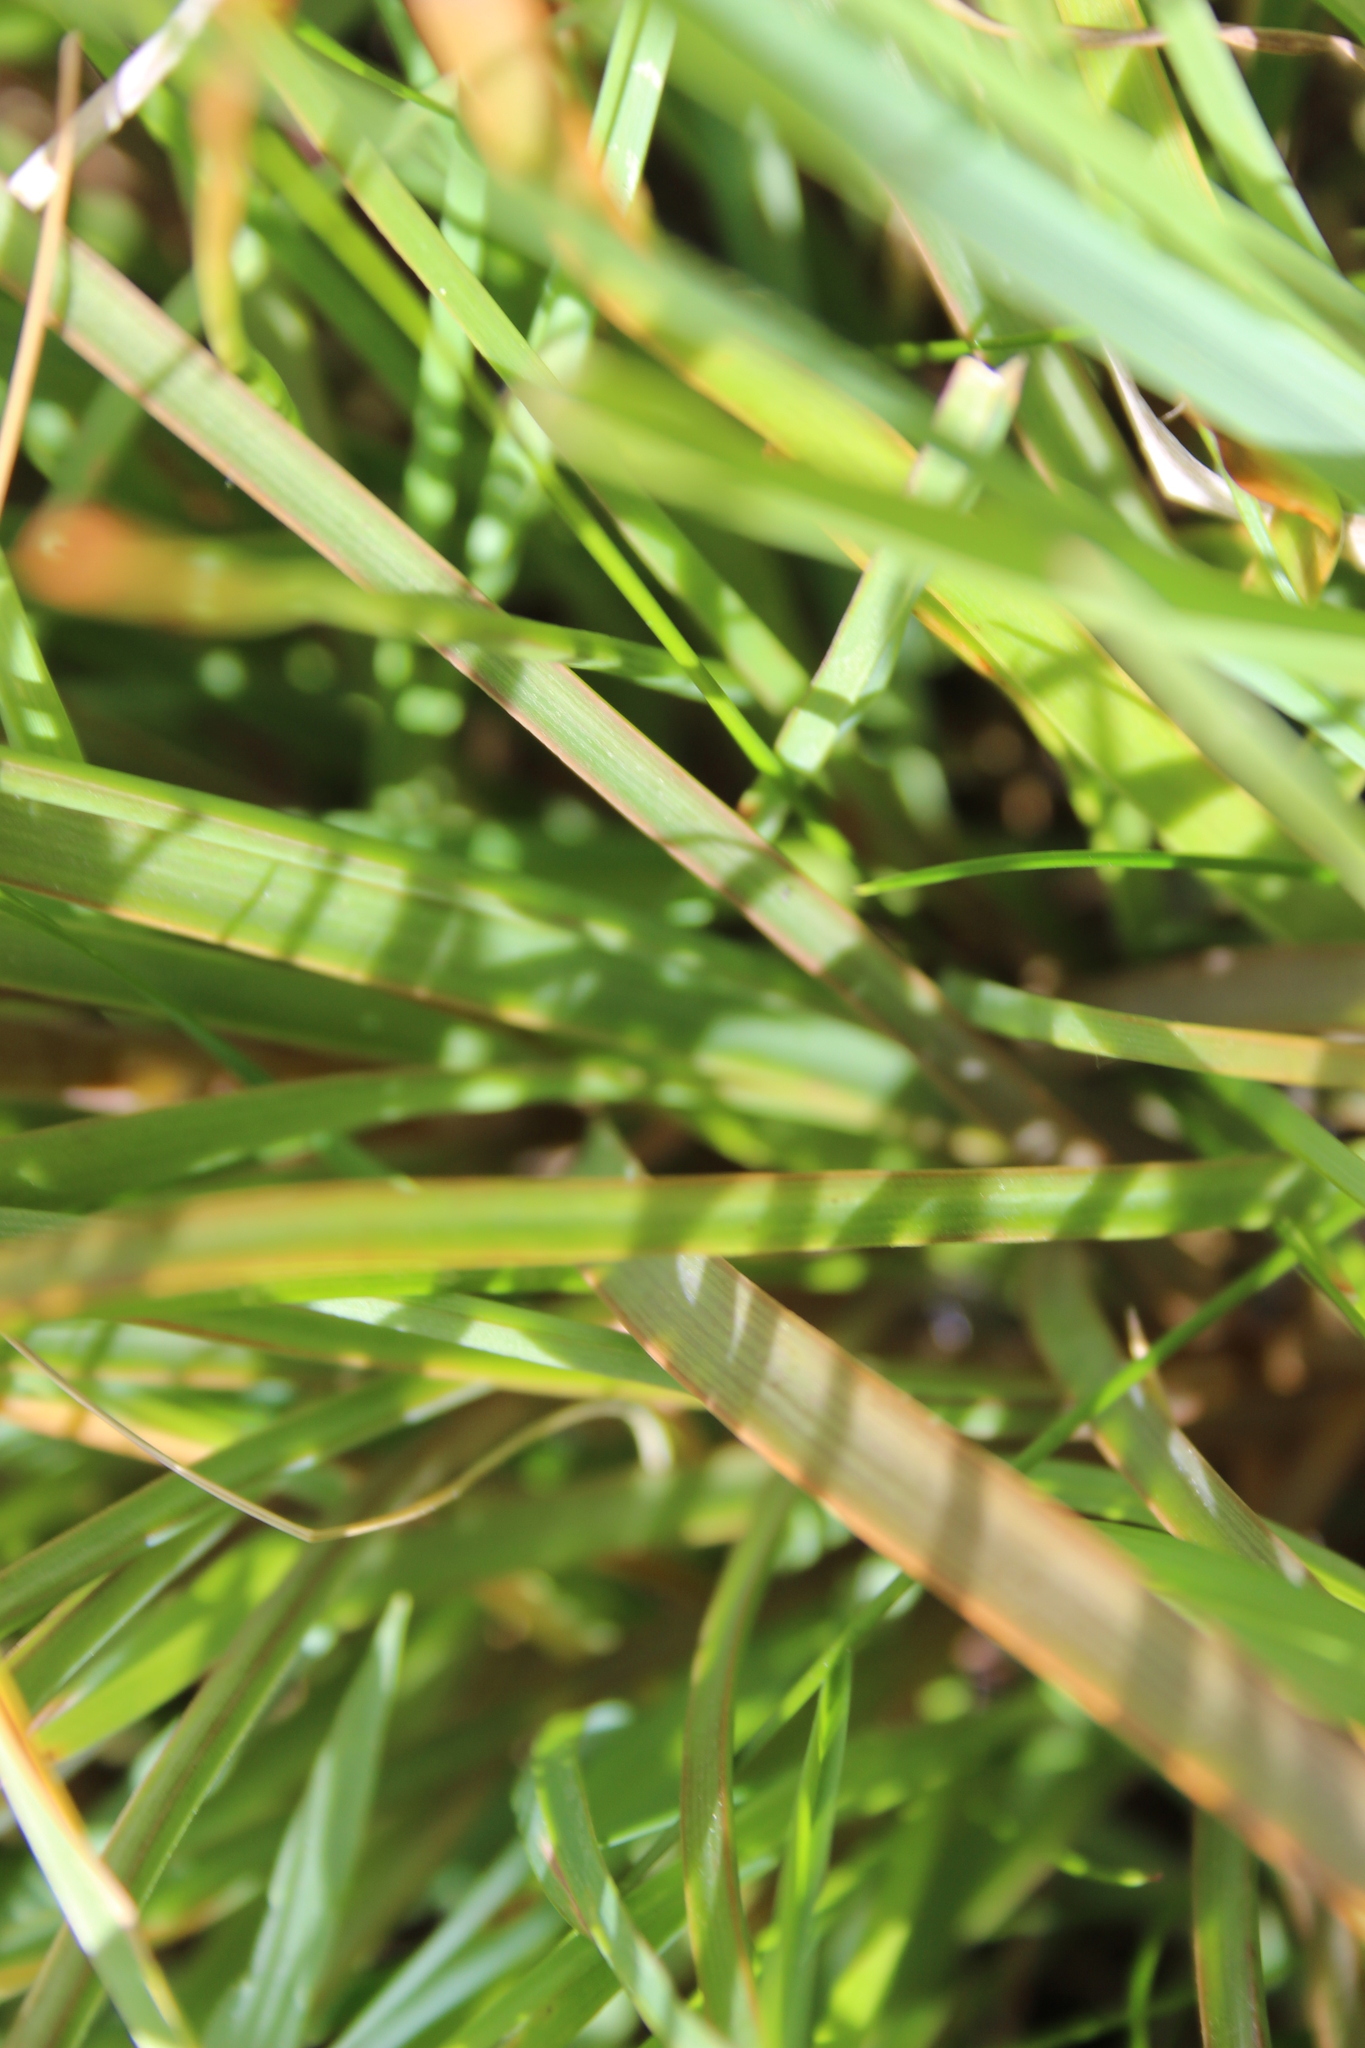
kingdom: Plantae
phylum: Tracheophyta
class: Liliopsida
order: Asparagales
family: Asphodelaceae
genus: Bulbinella
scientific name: Bulbinella angustifolia
